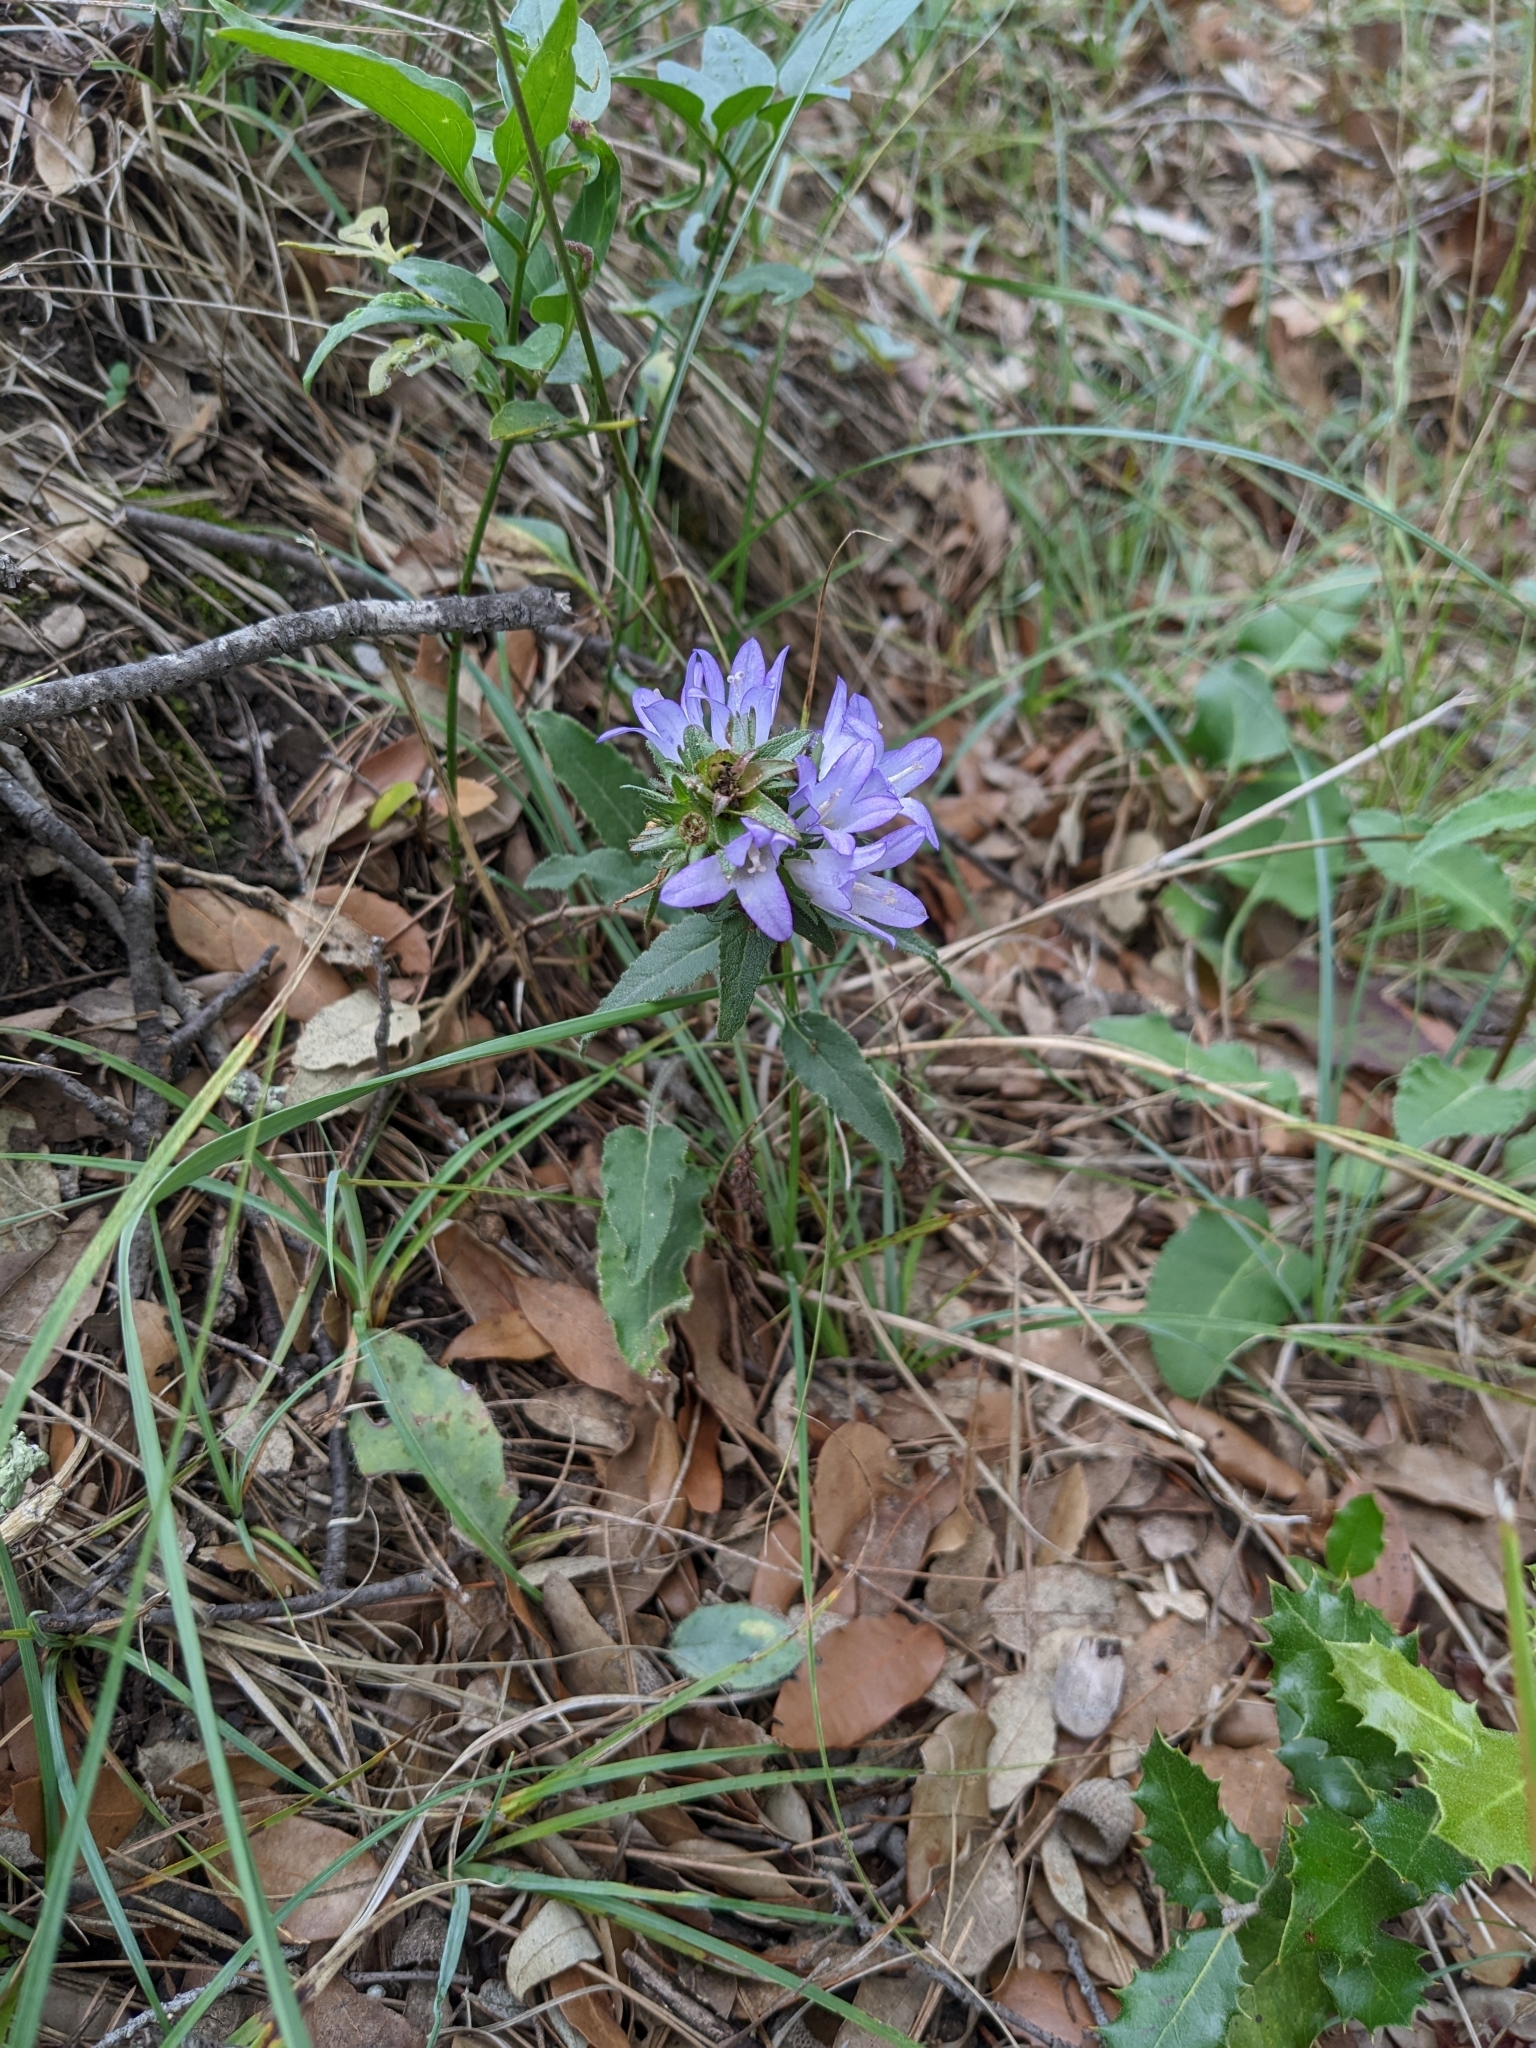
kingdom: Plantae
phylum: Tracheophyta
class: Magnoliopsida
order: Asterales
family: Campanulaceae
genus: Campanula
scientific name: Campanula glomerata
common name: Clustered bellflower
